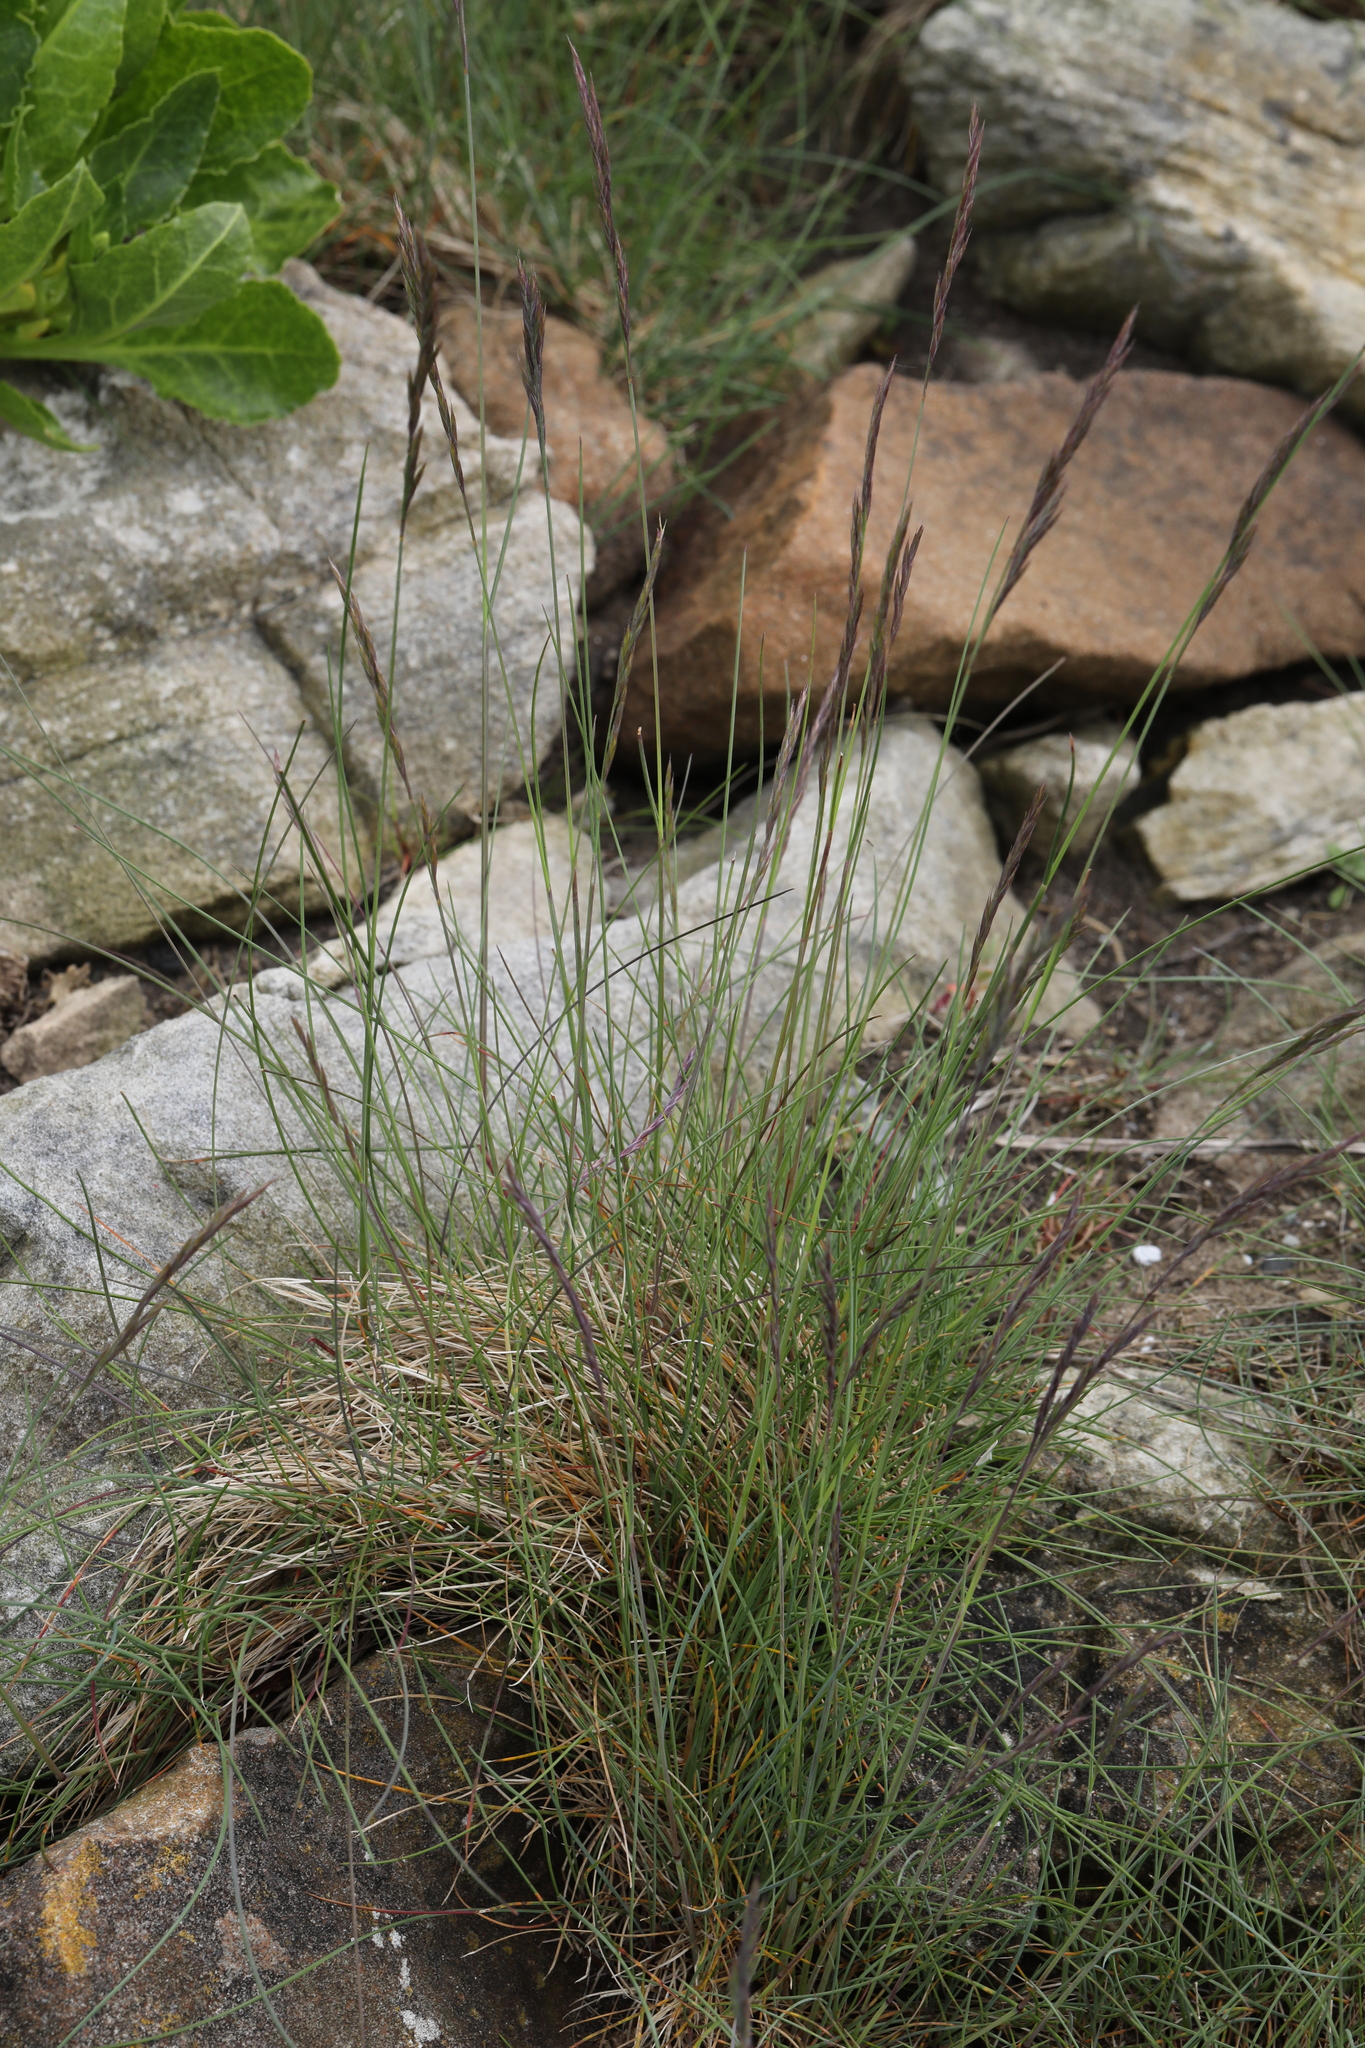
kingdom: Plantae
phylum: Tracheophyta
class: Liliopsida
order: Poales
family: Poaceae
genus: Festuca
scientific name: Festuca rubra
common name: Red fescue
